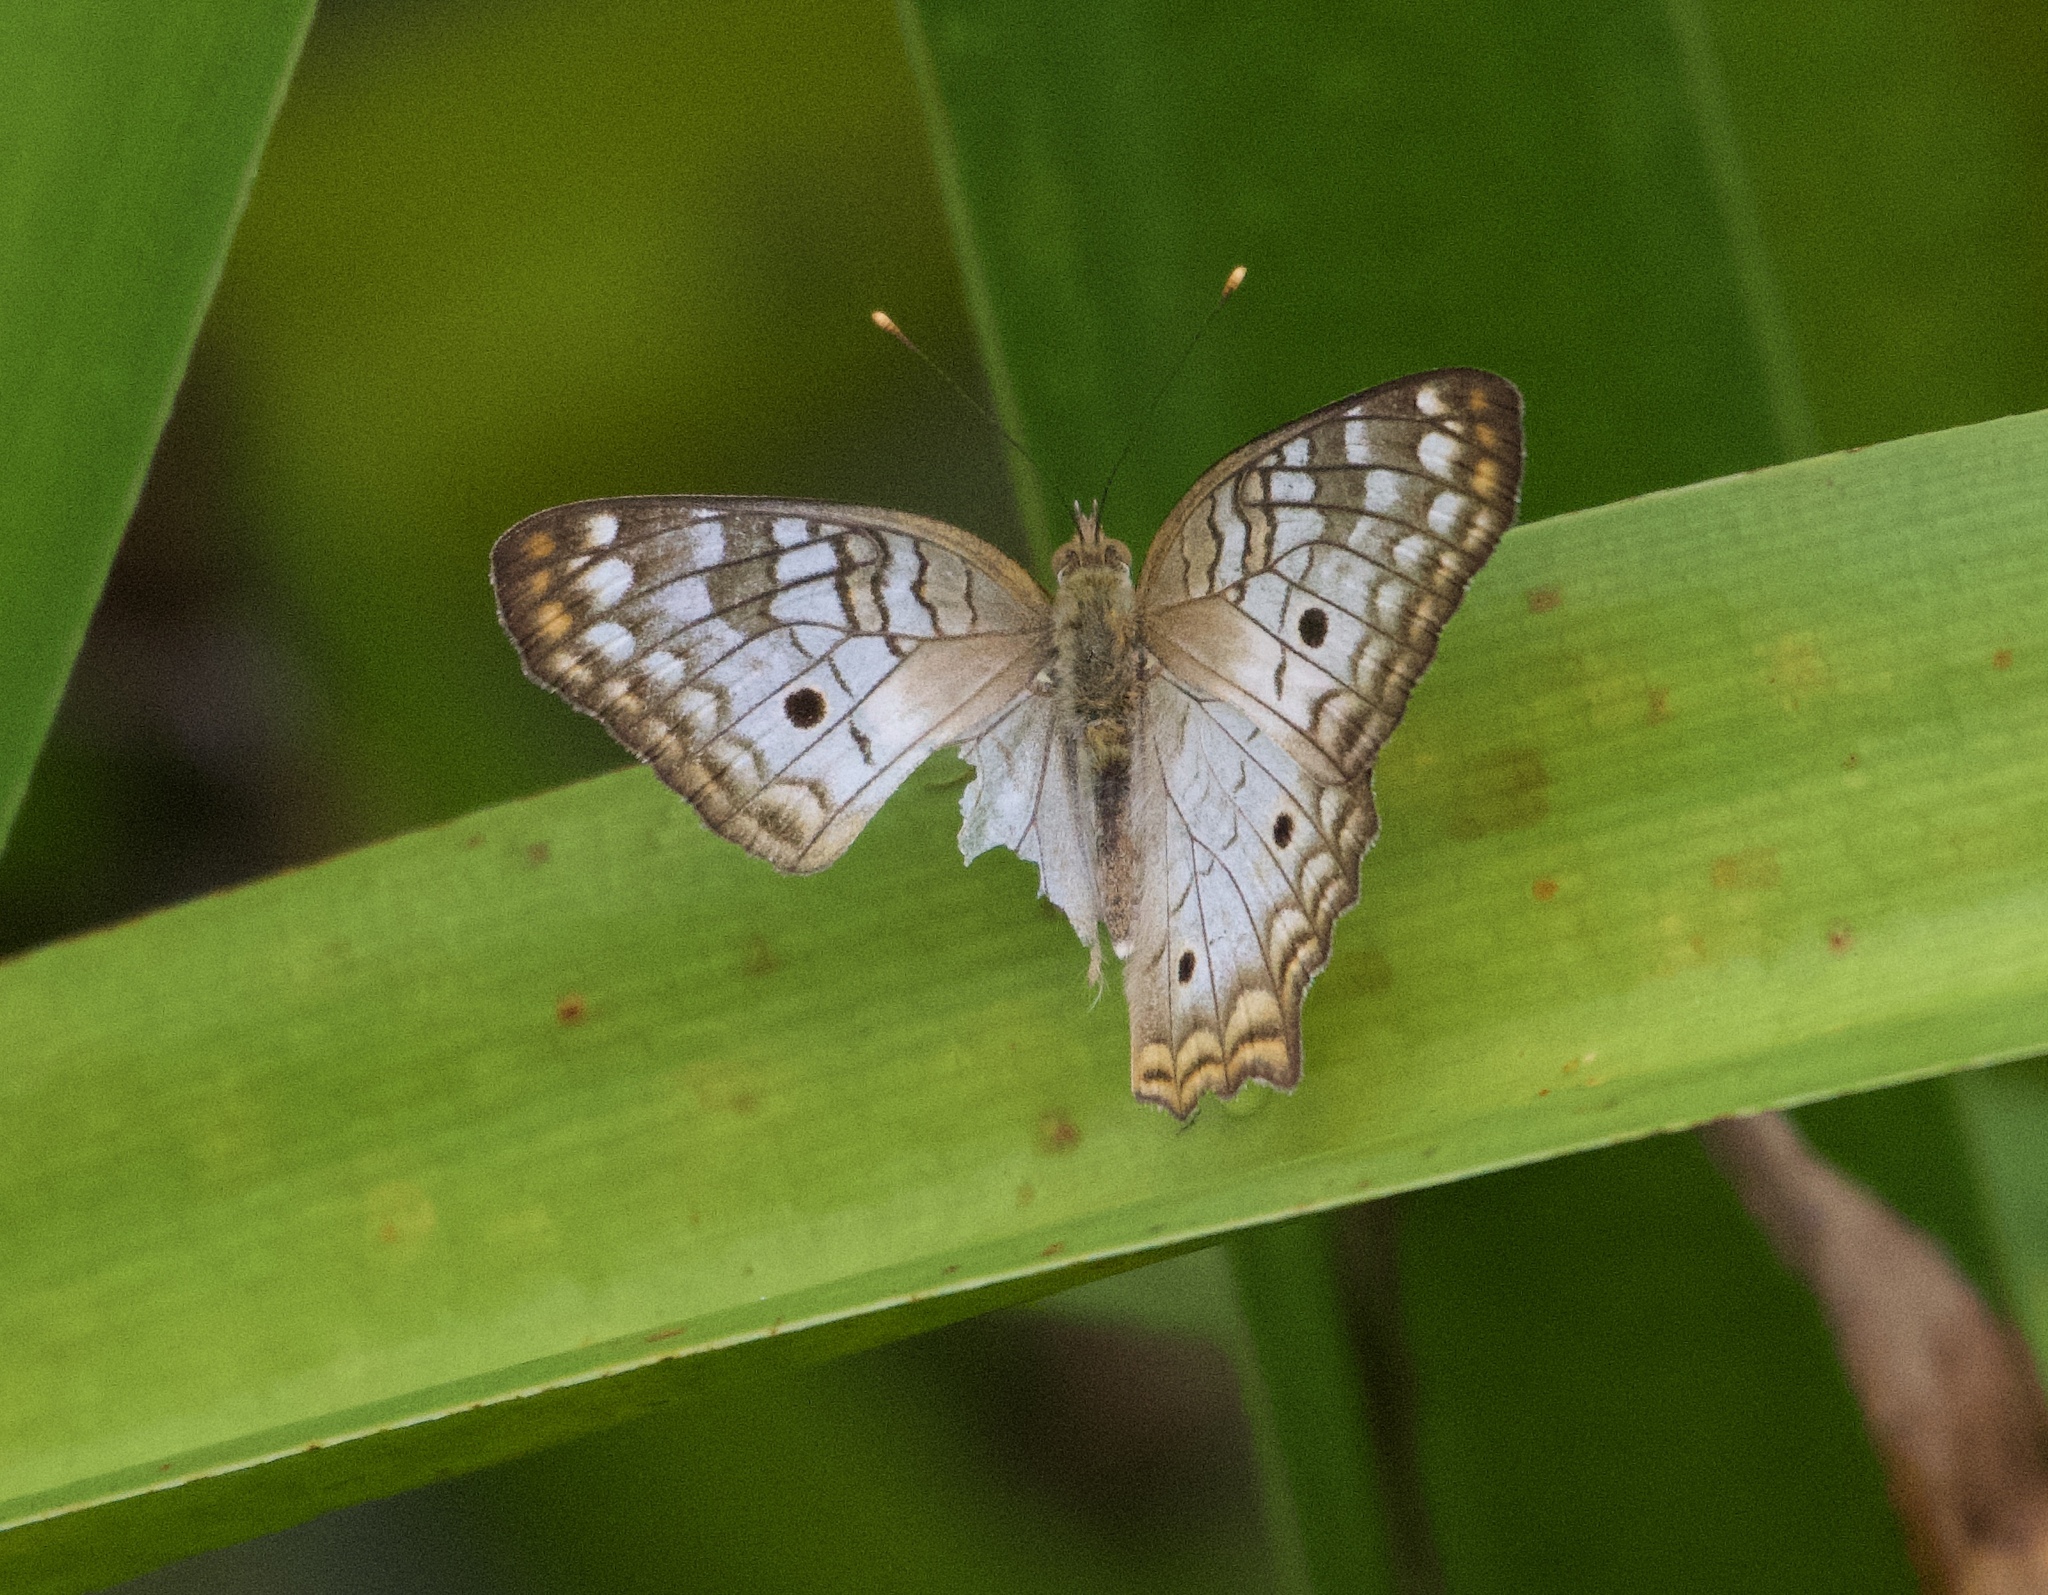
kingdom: Animalia
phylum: Arthropoda
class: Insecta
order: Lepidoptera
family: Nymphalidae
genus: Anartia
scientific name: Anartia jatrophae
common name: White peacock
